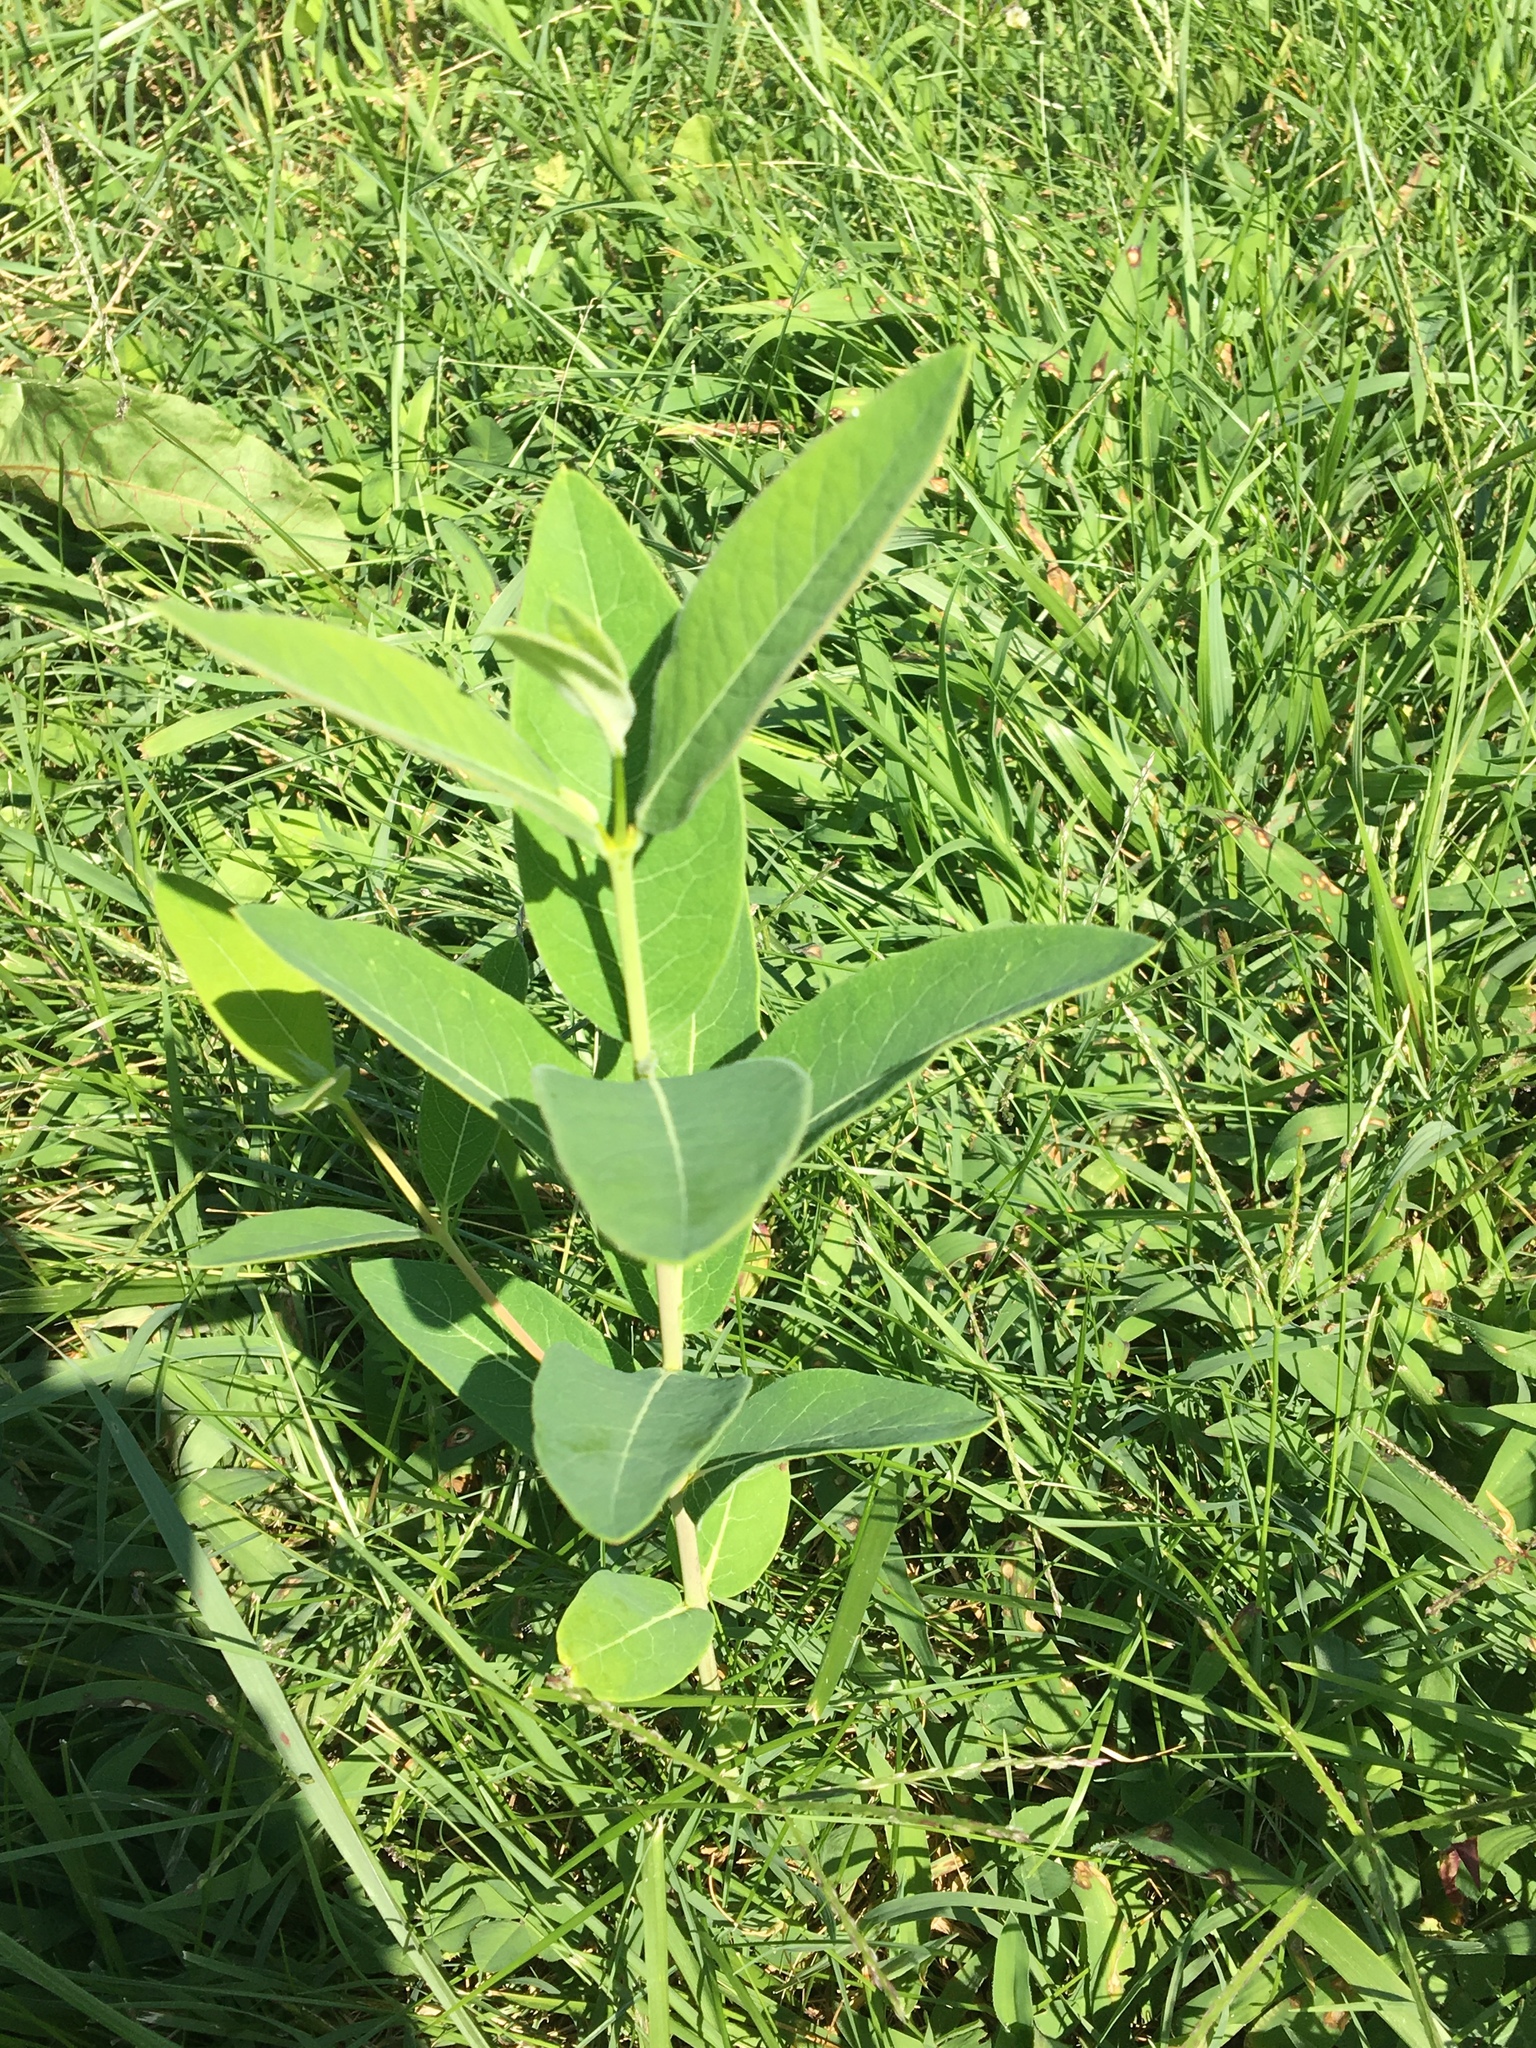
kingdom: Plantae
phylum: Tracheophyta
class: Magnoliopsida
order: Gentianales
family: Apocynaceae
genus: Asclepias
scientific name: Asclepias syriaca
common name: Common milkweed
